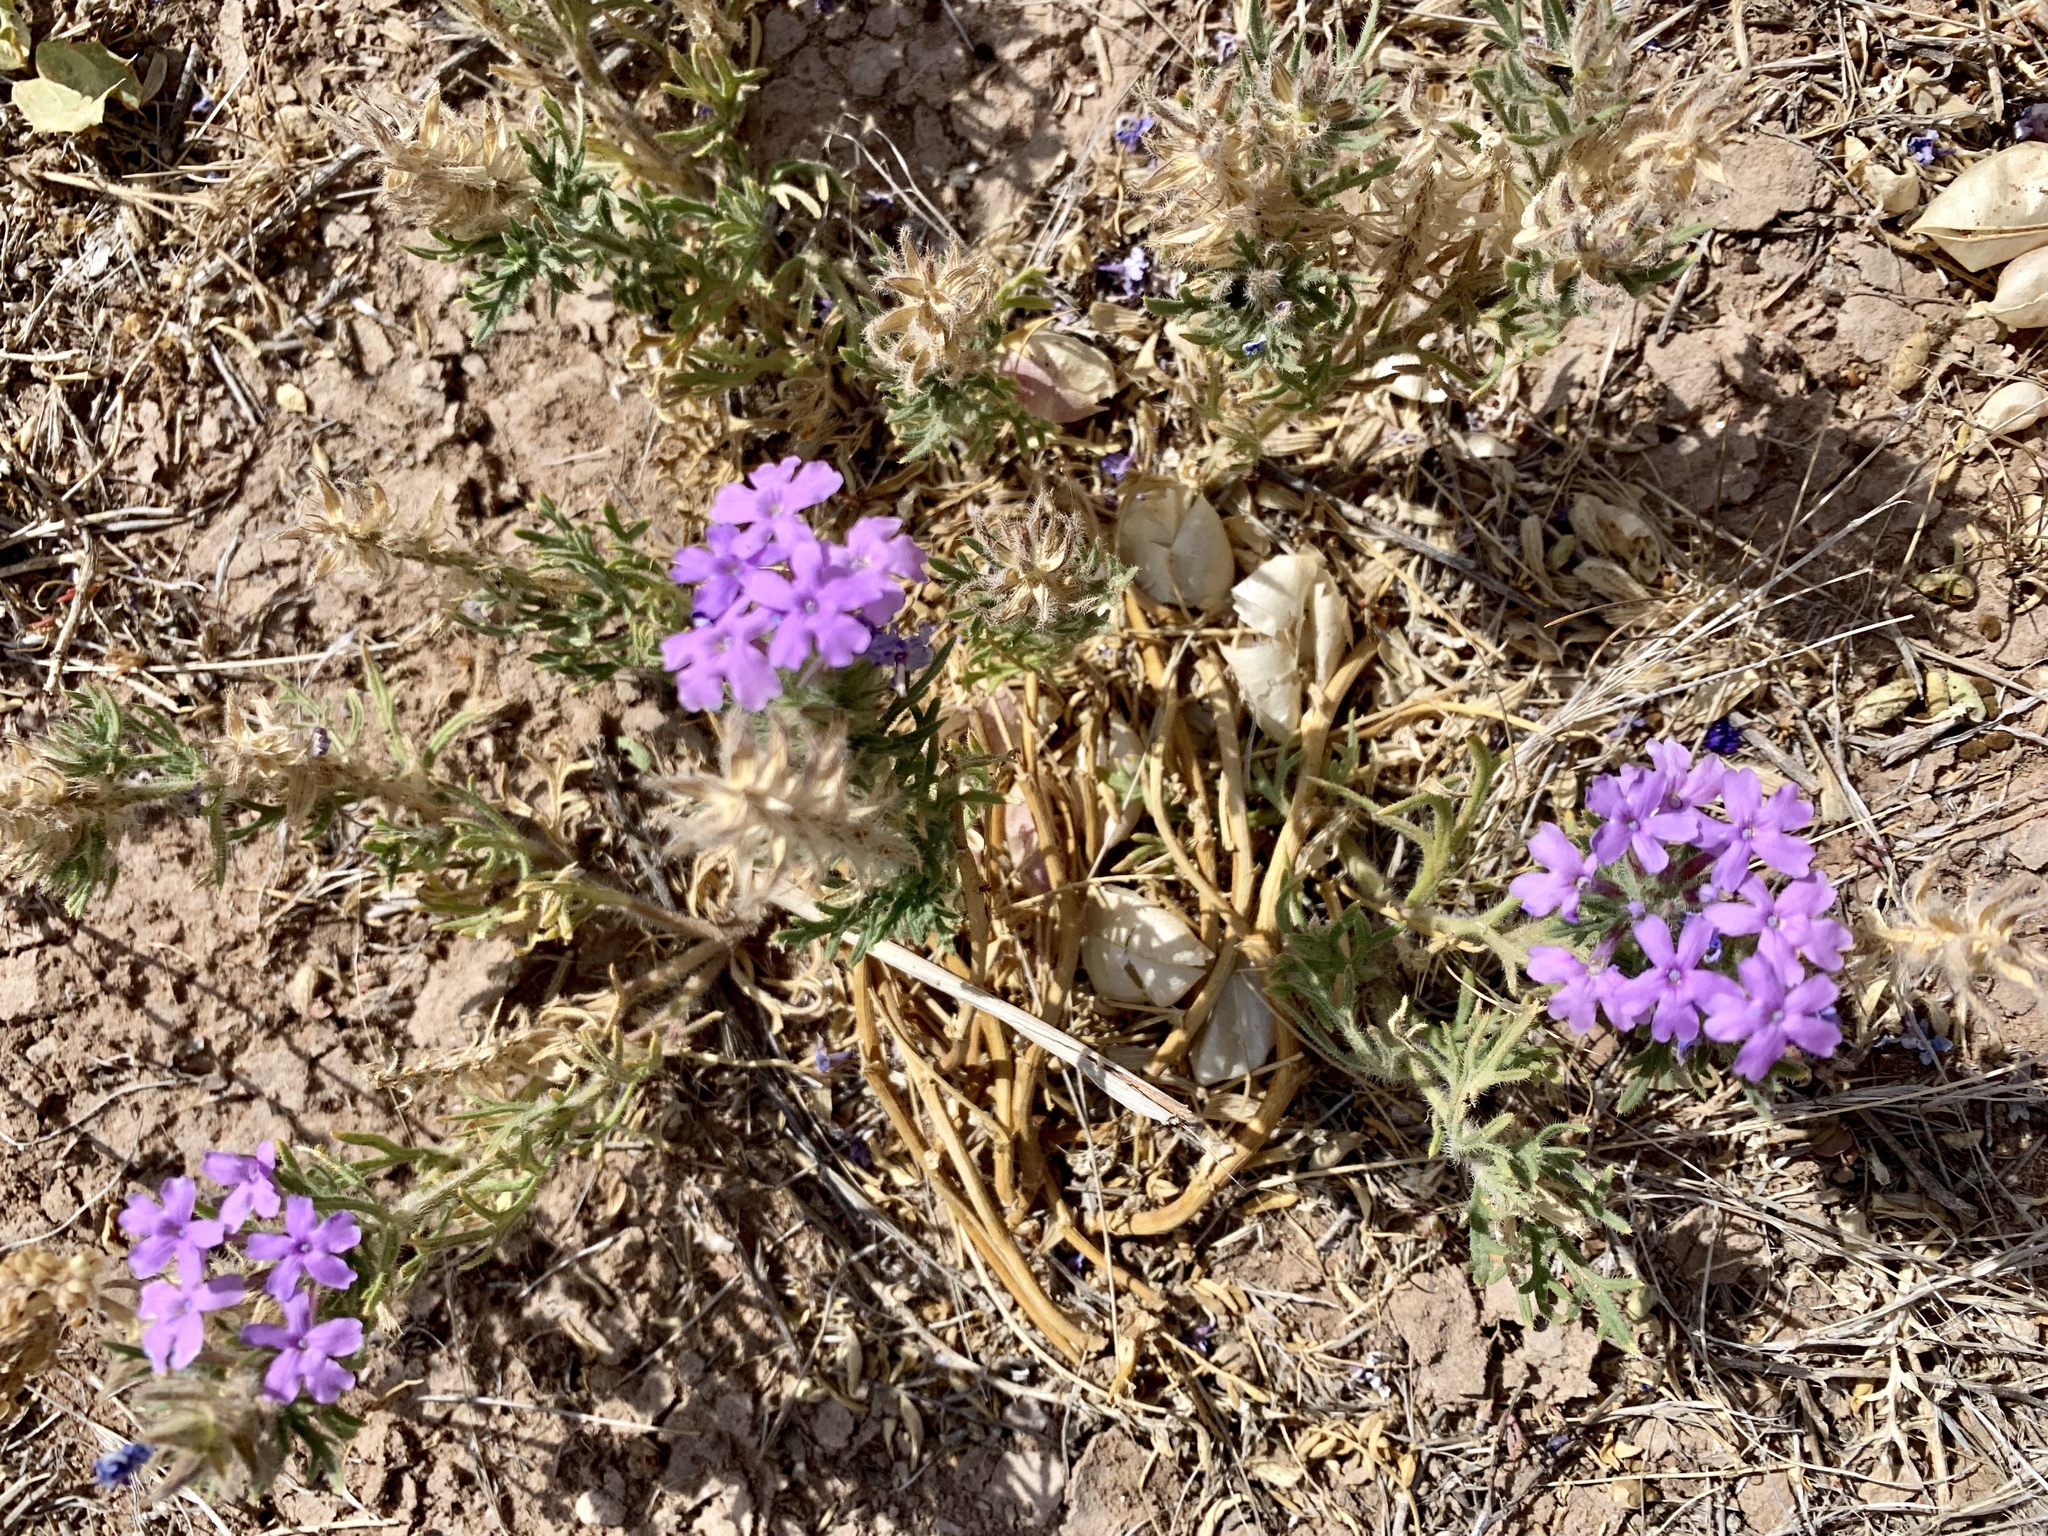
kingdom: Plantae
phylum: Tracheophyta
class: Magnoliopsida
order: Lamiales
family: Verbenaceae
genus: Verbena
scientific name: Verbena bipinnatifida
